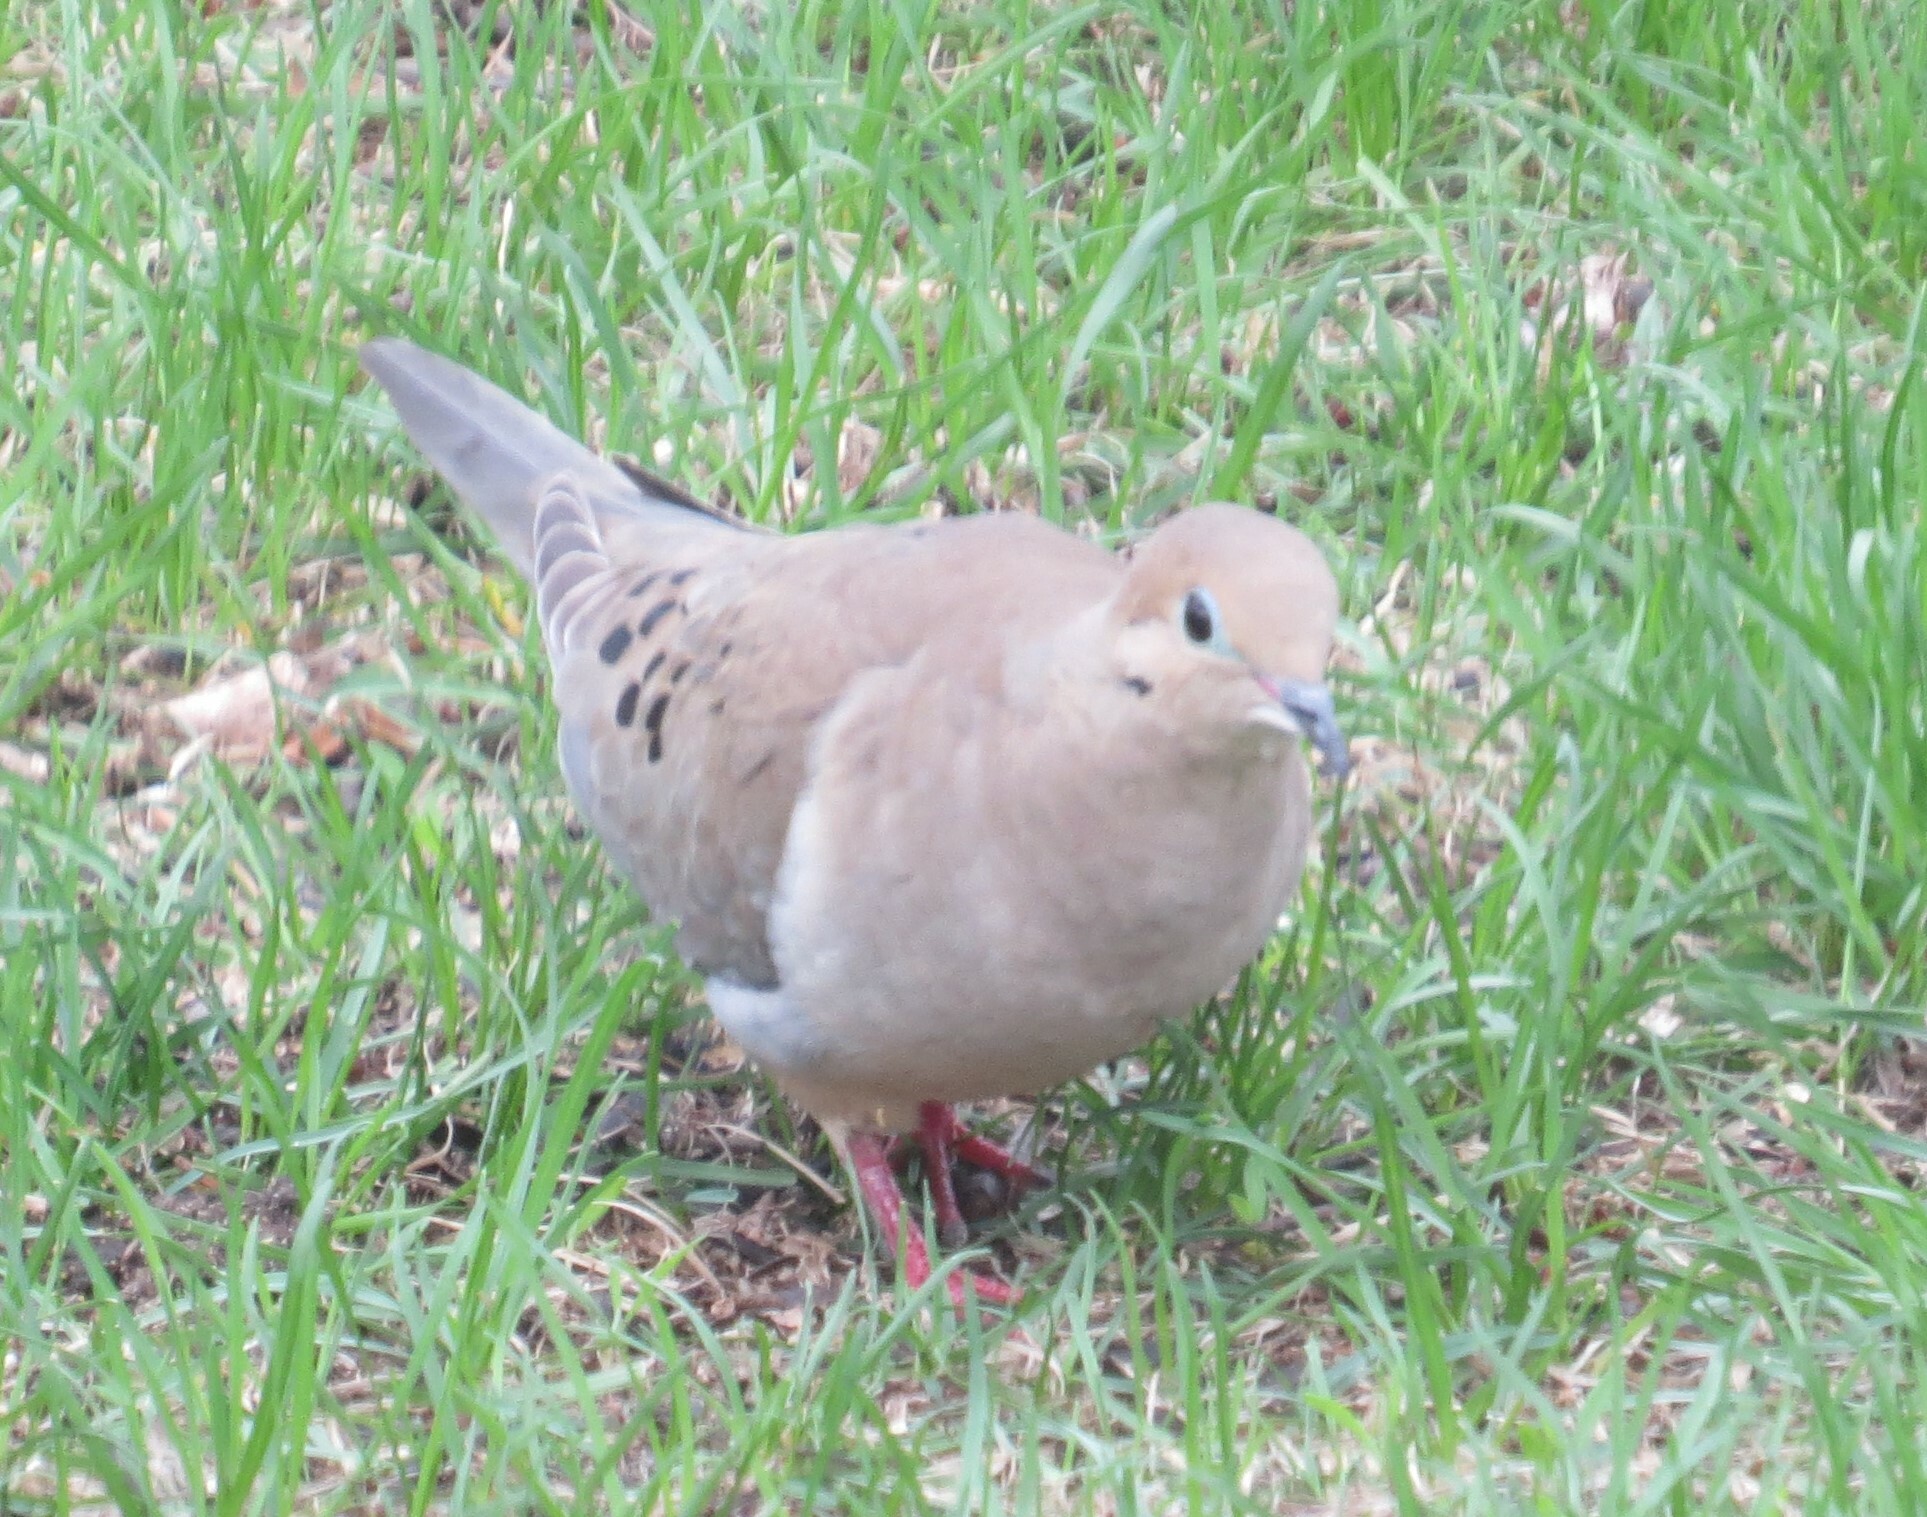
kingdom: Animalia
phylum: Chordata
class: Aves
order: Columbiformes
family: Columbidae
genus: Zenaida
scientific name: Zenaida macroura
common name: Mourning dove
